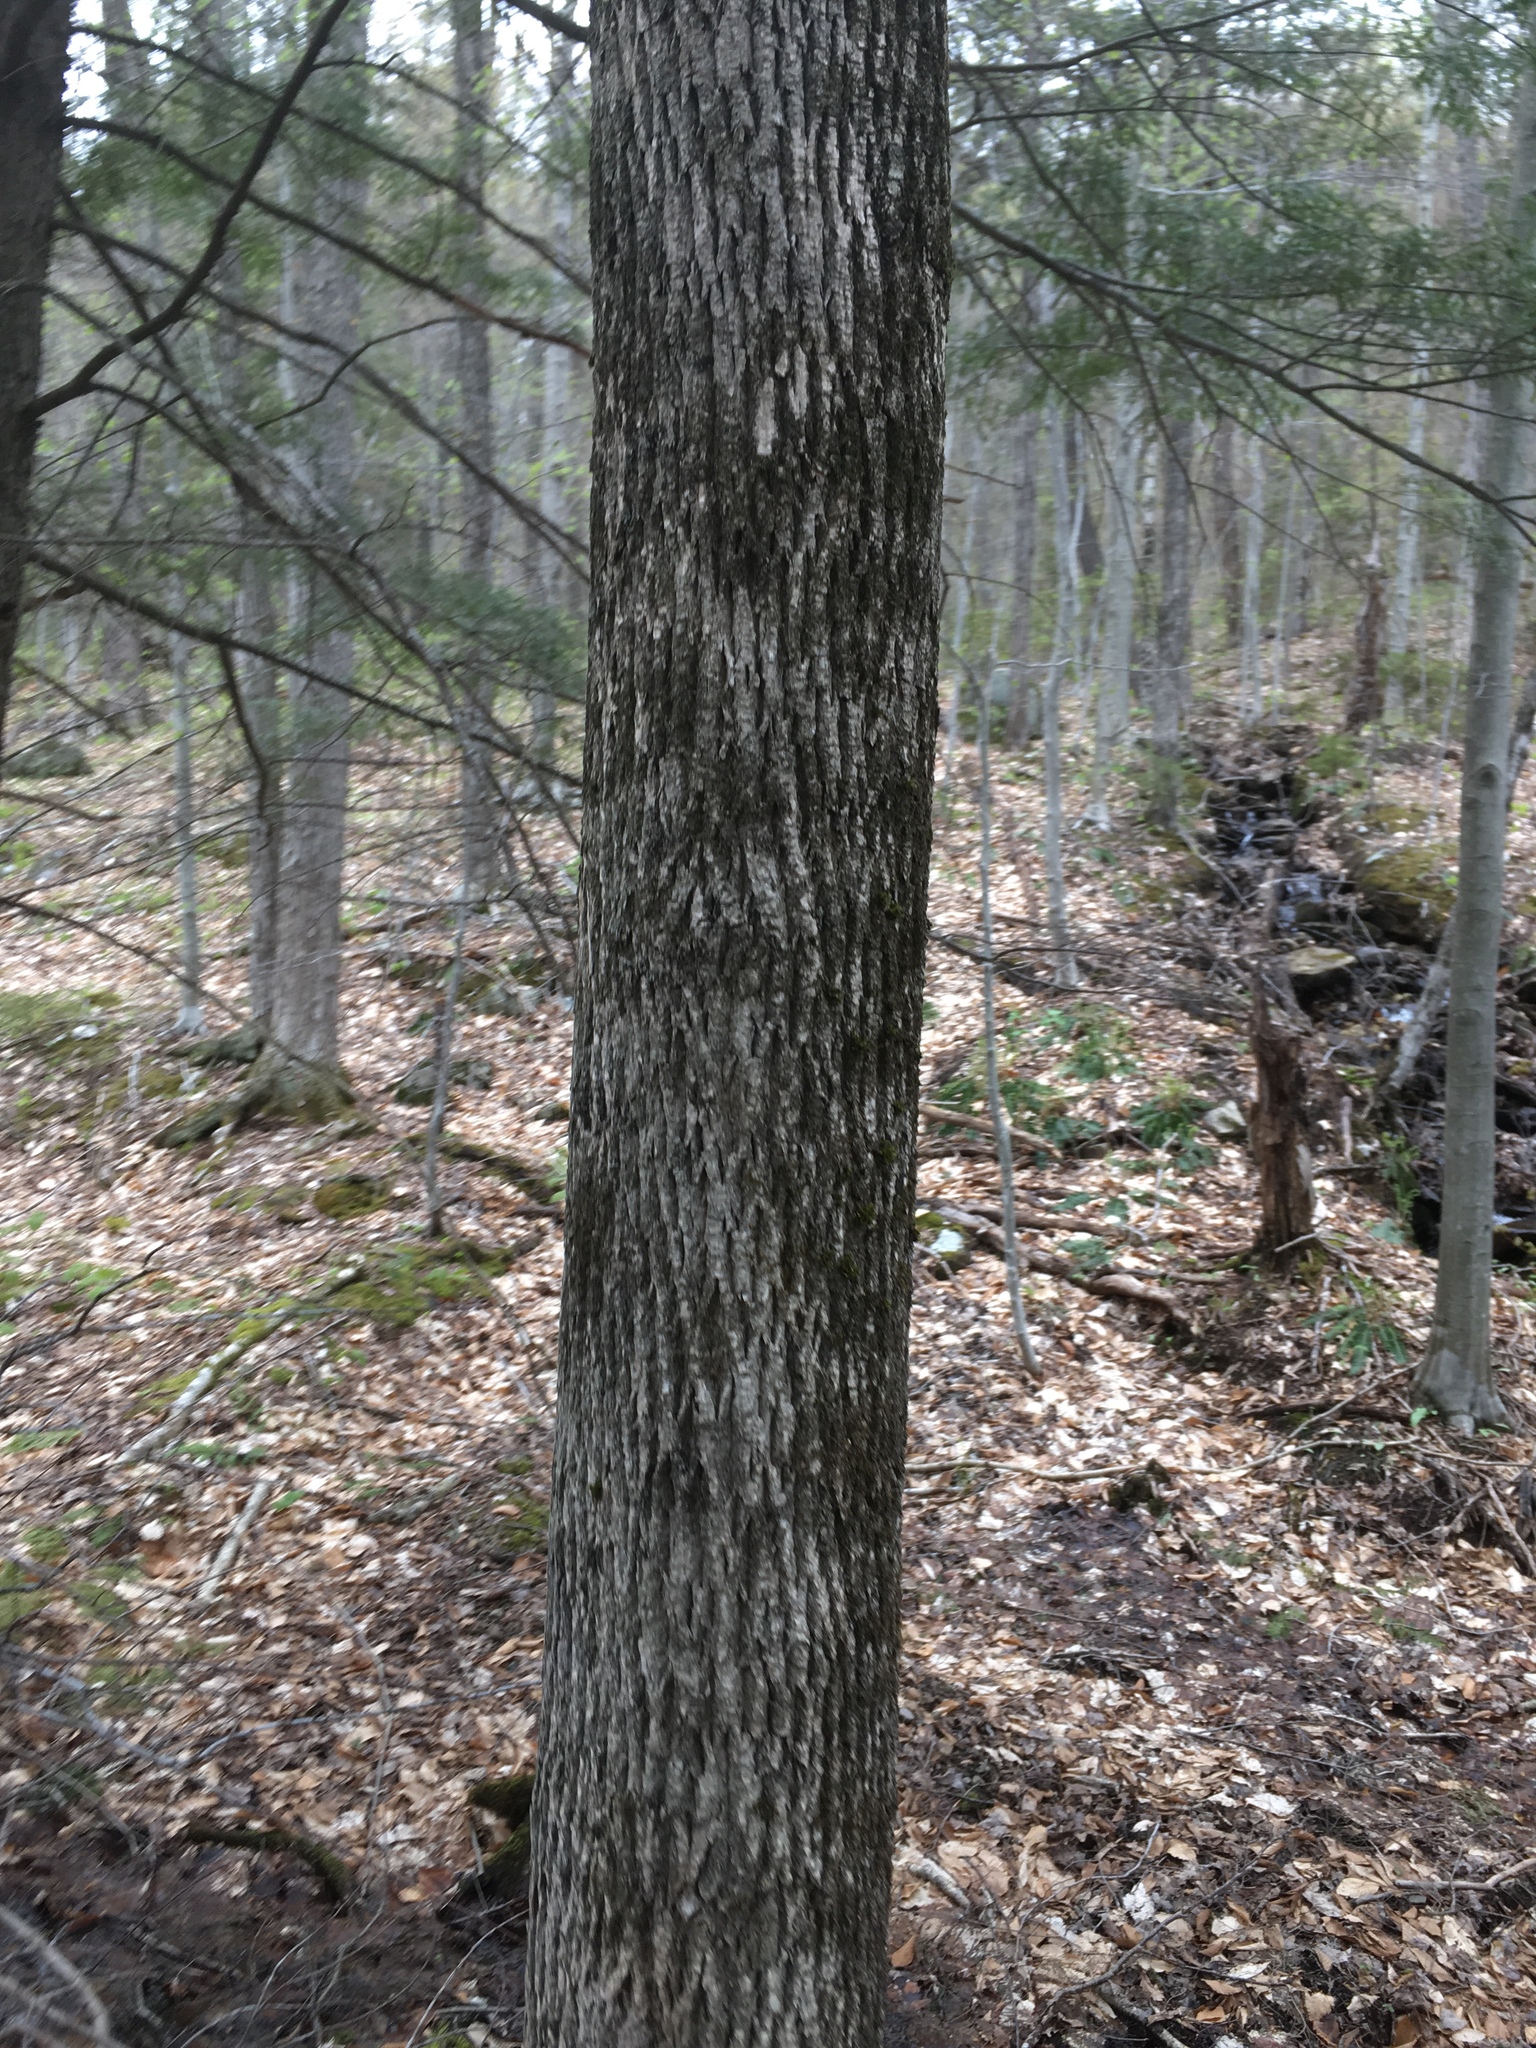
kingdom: Plantae
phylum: Tracheophyta
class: Magnoliopsida
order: Lamiales
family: Oleaceae
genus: Fraxinus
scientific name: Fraxinus americana
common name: White ash
